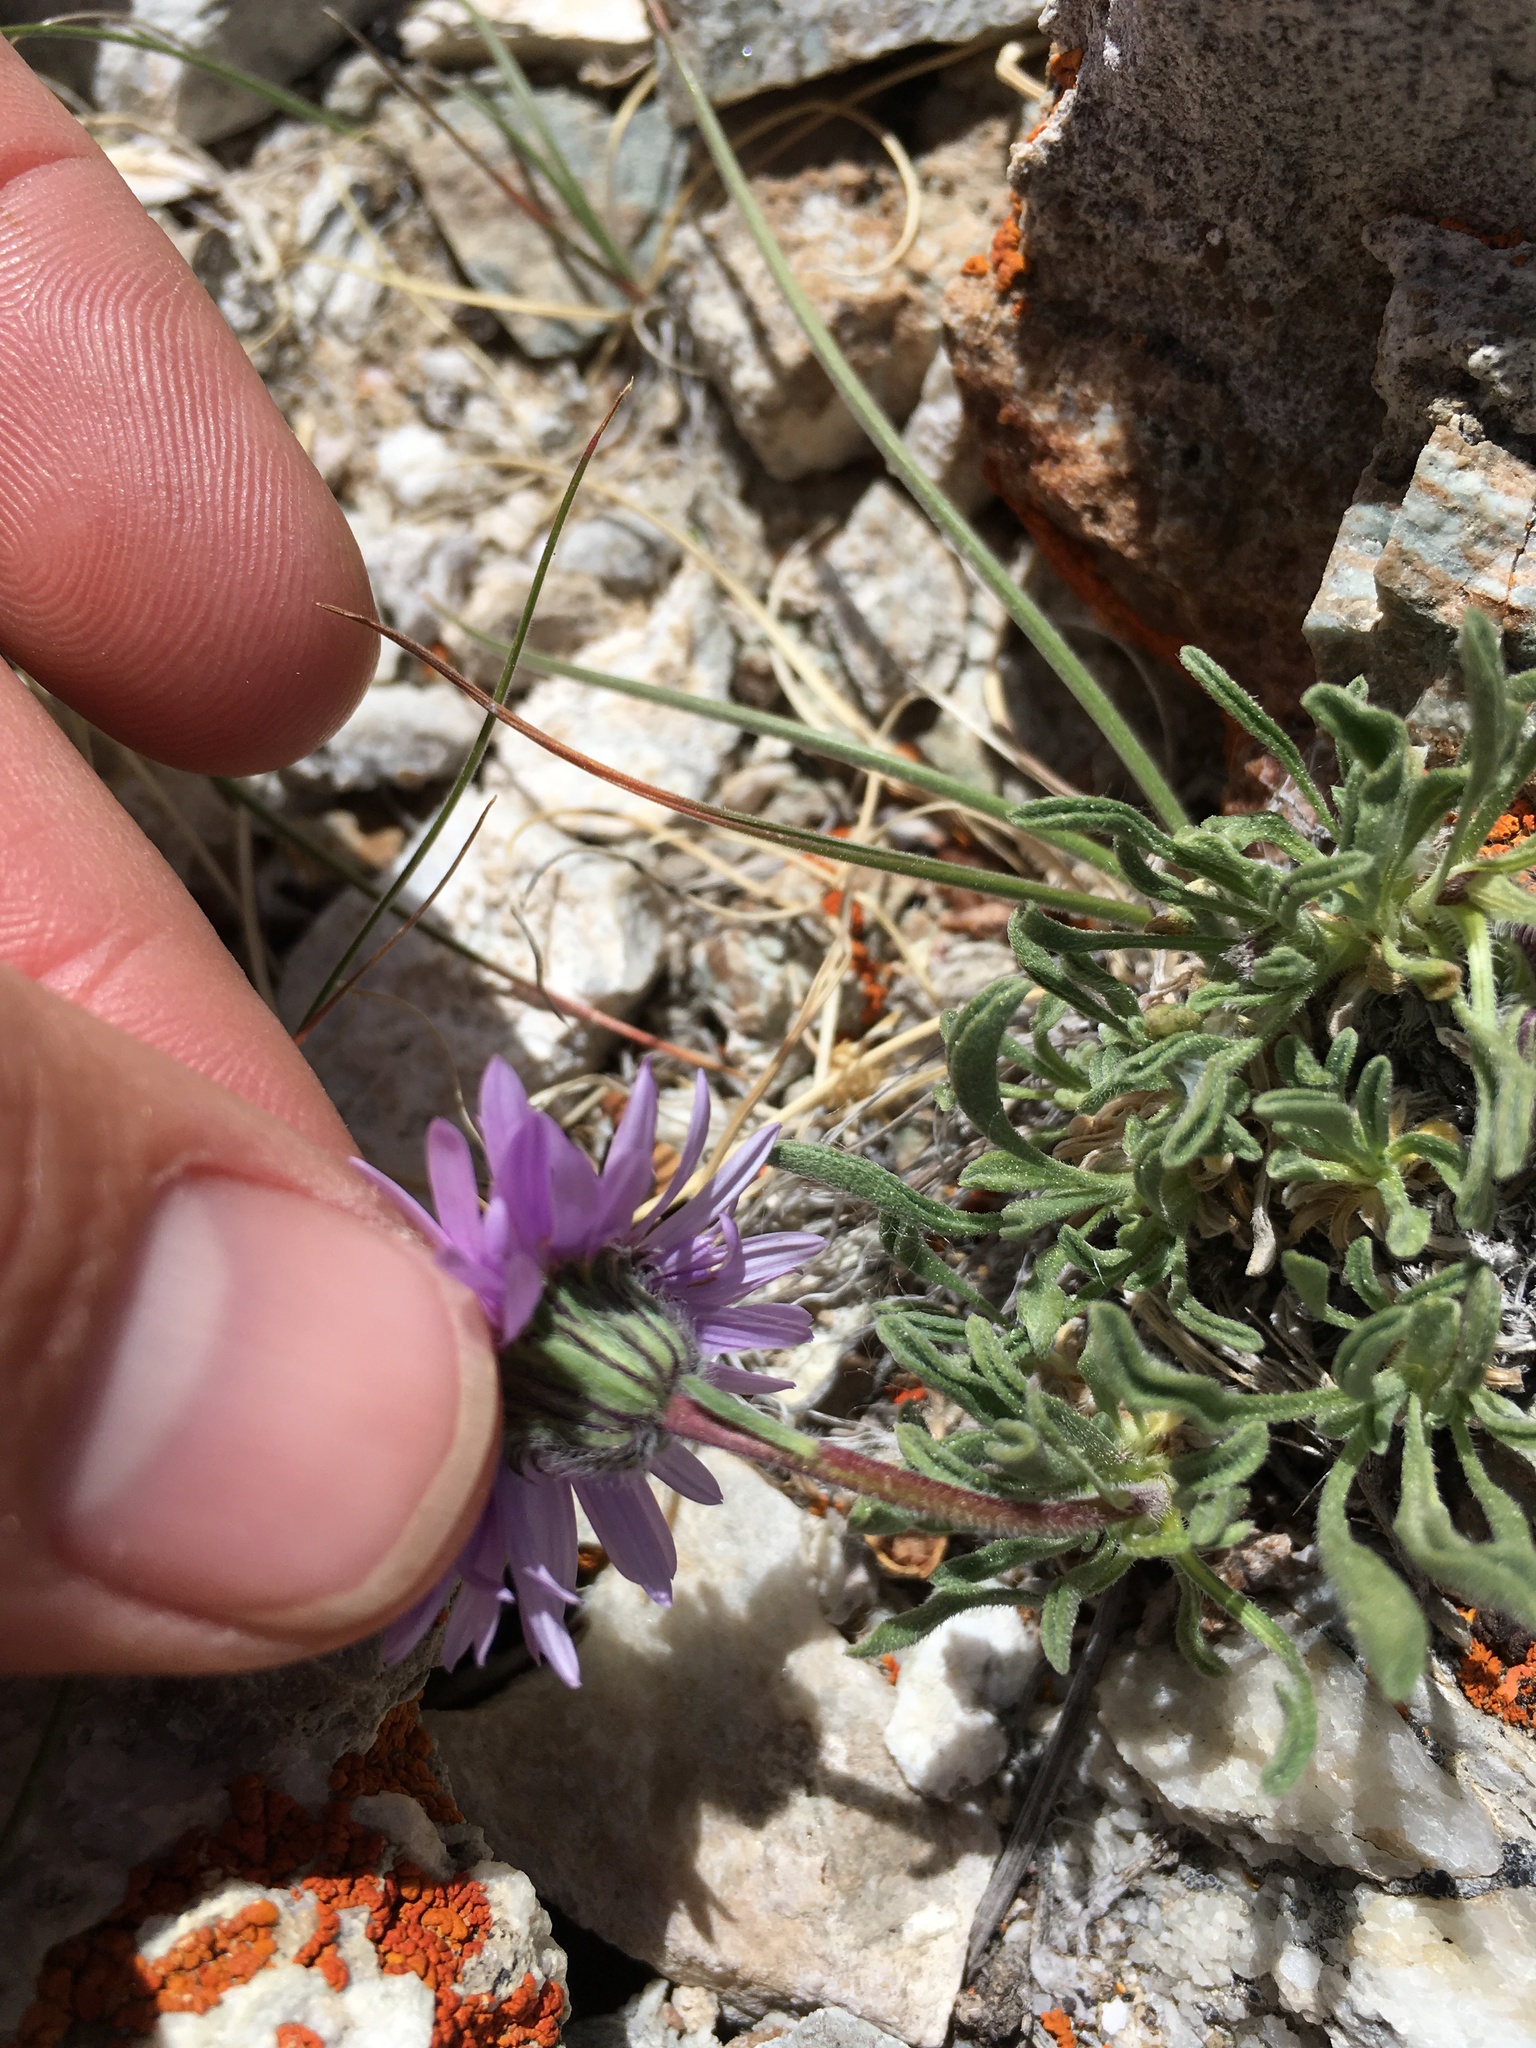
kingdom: Plantae
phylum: Tracheophyta
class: Magnoliopsida
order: Asterales
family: Asteraceae
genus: Erigeron
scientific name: Erigeron pygmaeus
